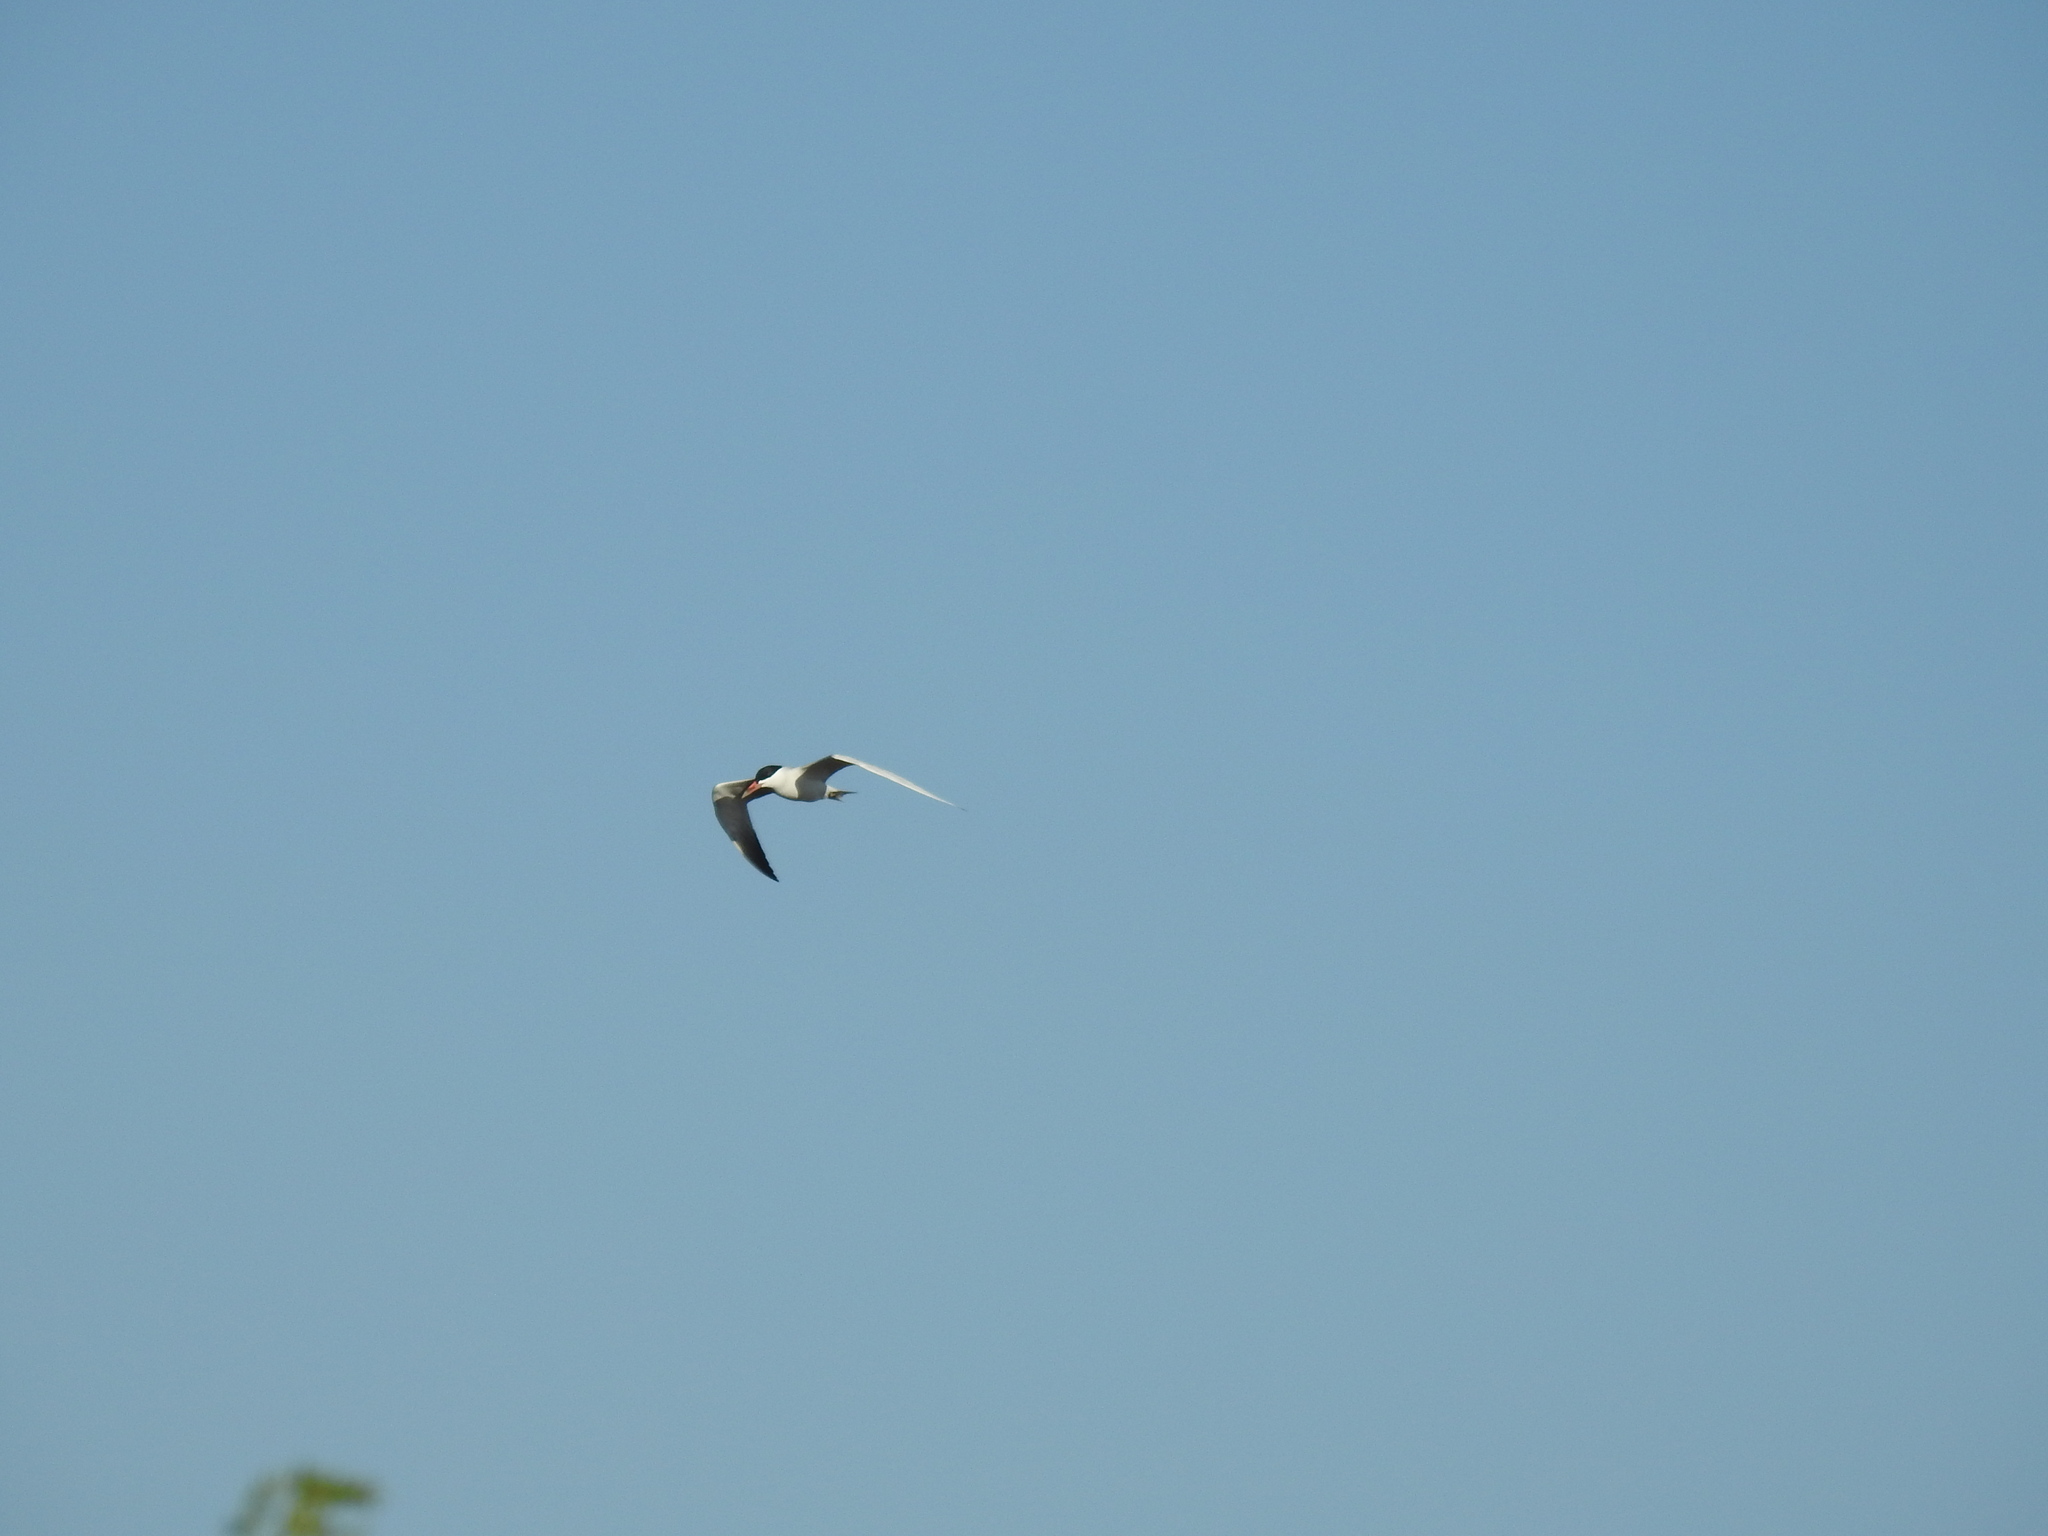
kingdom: Animalia
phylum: Chordata
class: Aves
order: Charadriiformes
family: Laridae
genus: Hydroprogne
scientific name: Hydroprogne caspia
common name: Caspian tern
